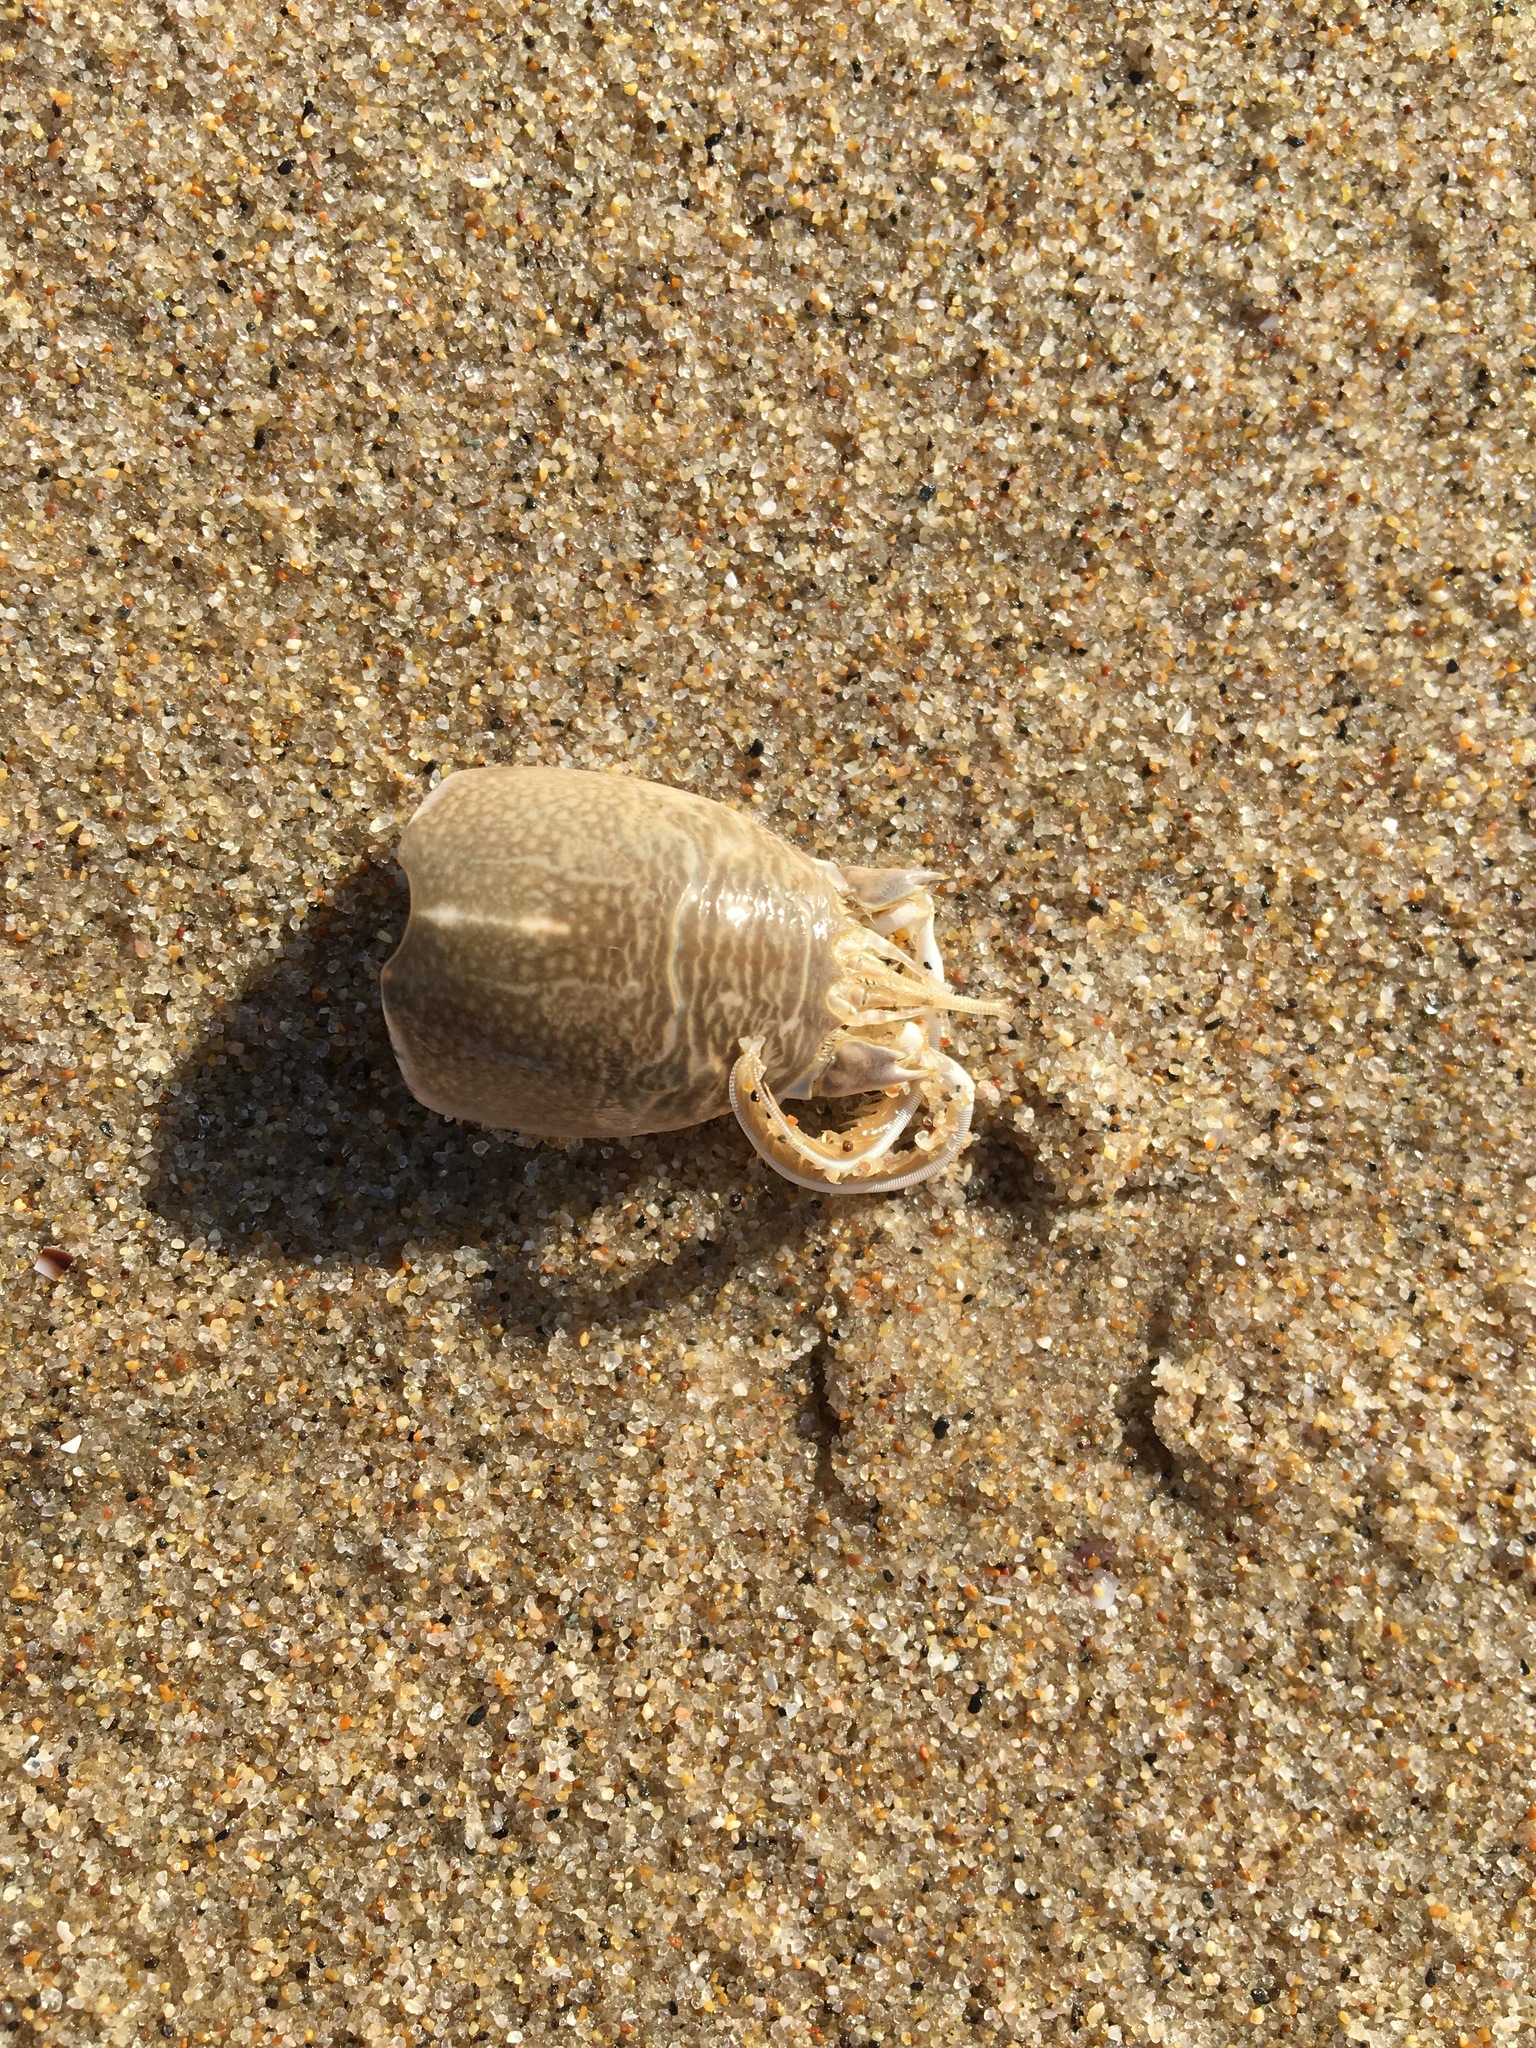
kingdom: Animalia
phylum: Arthropoda
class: Malacostraca
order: Decapoda
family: Hippidae
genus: Emerita
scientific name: Emerita analoga
